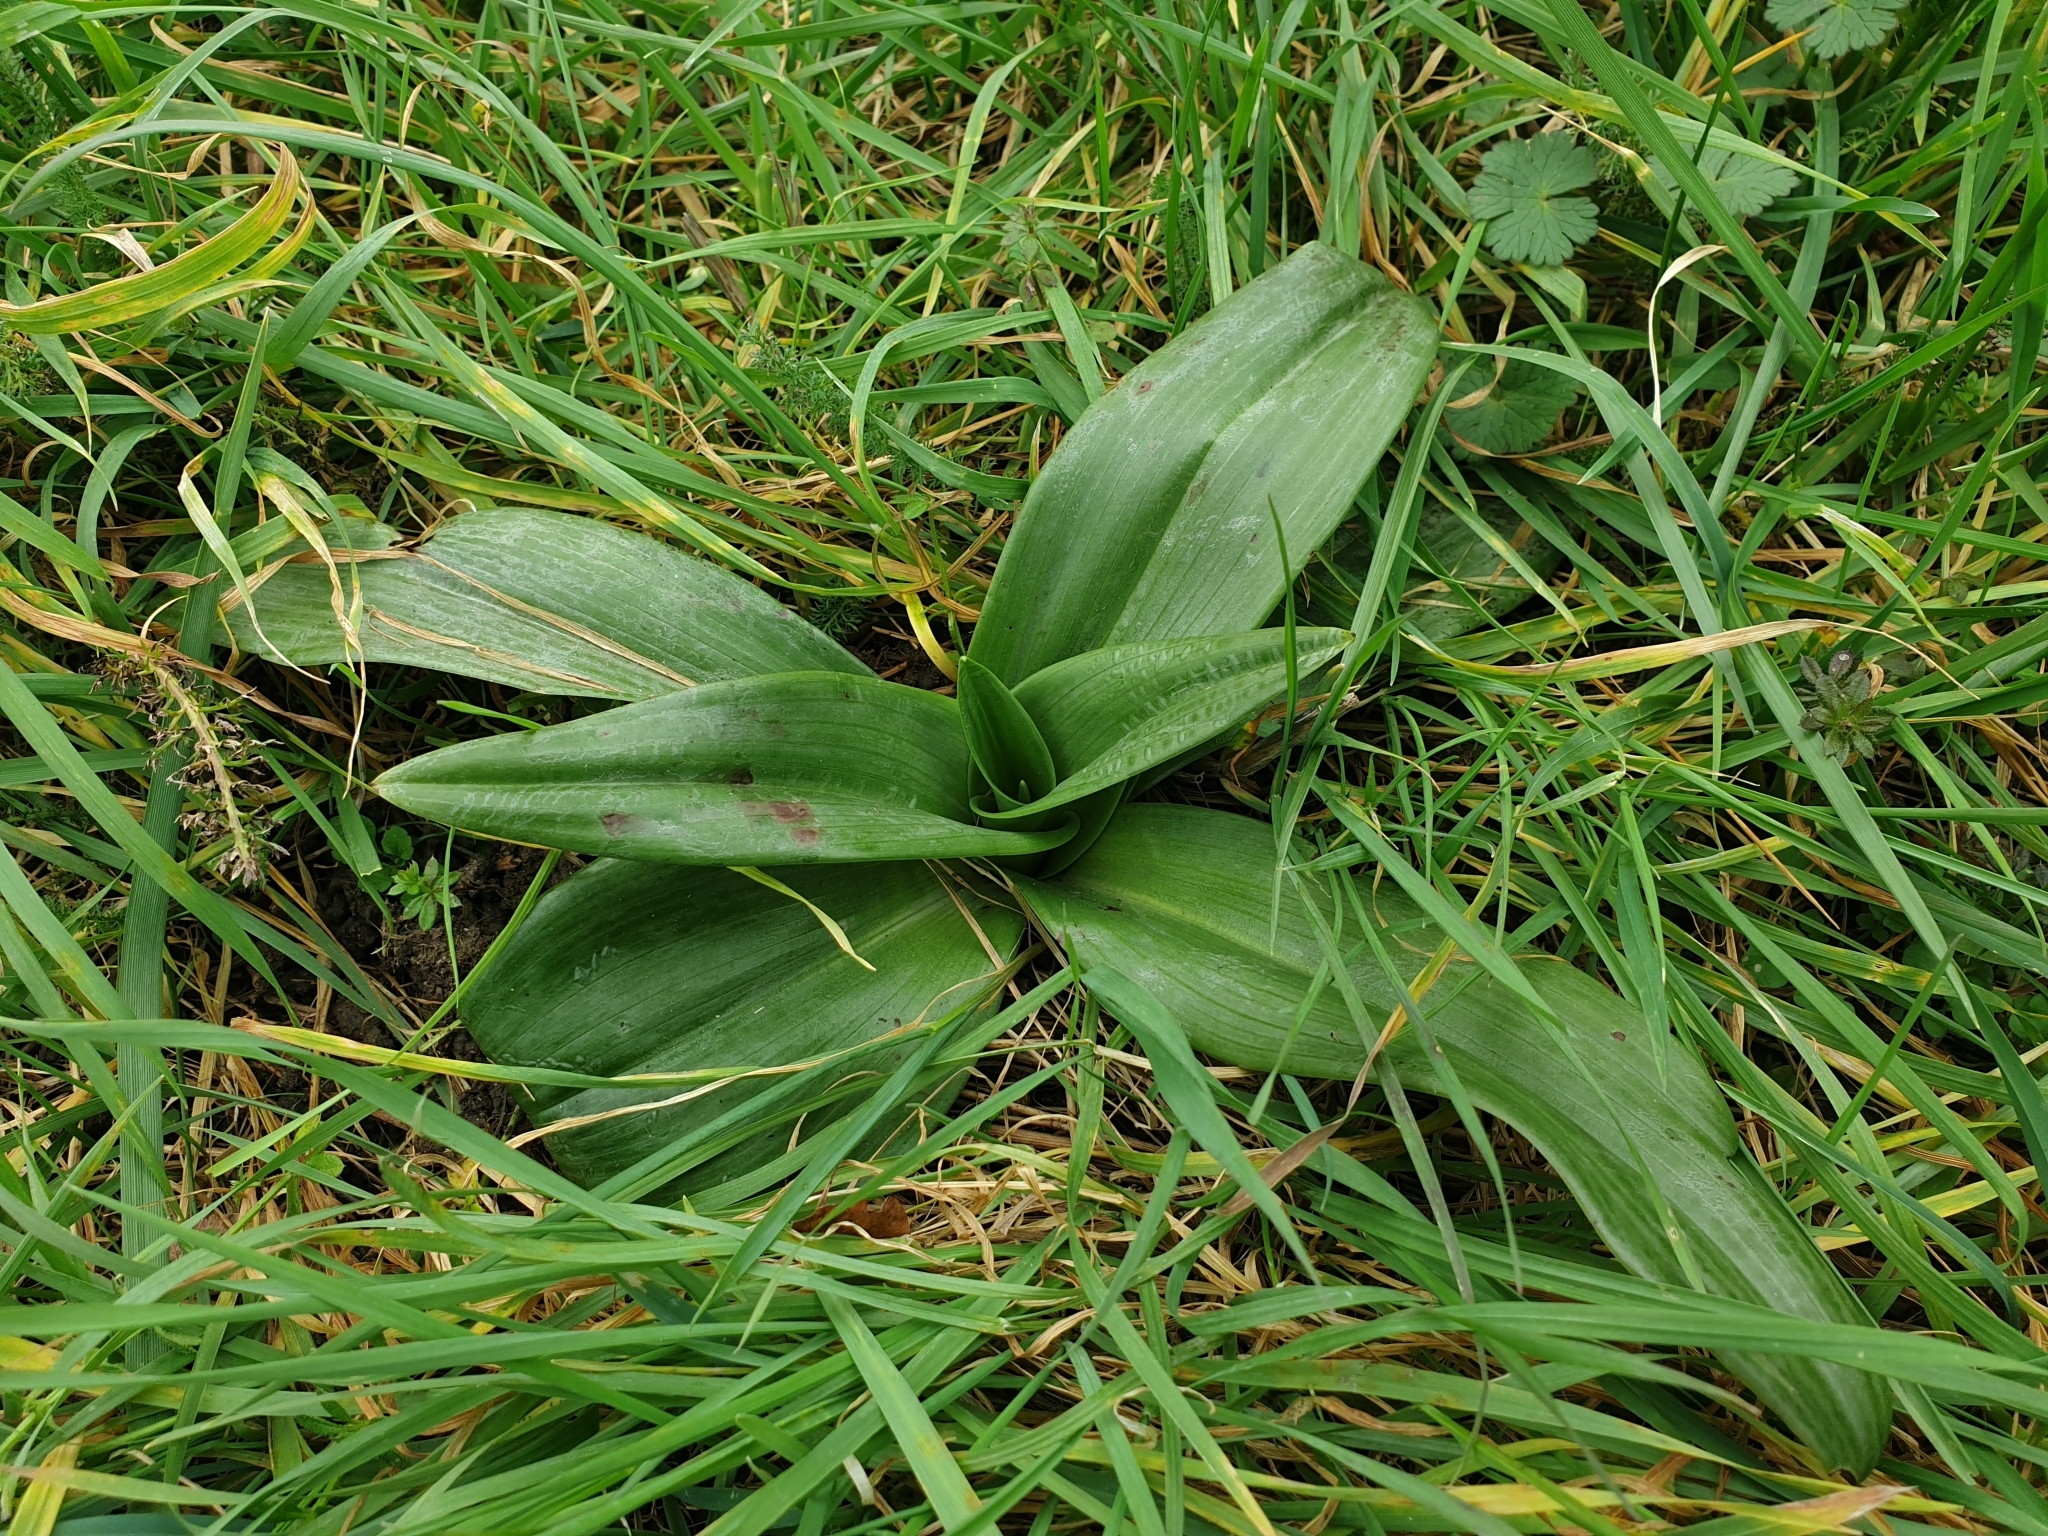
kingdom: Plantae
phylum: Tracheophyta
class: Liliopsida
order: Asparagales
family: Orchidaceae
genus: Himantoglossum
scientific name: Himantoglossum hircinum
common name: Lizard orchid
